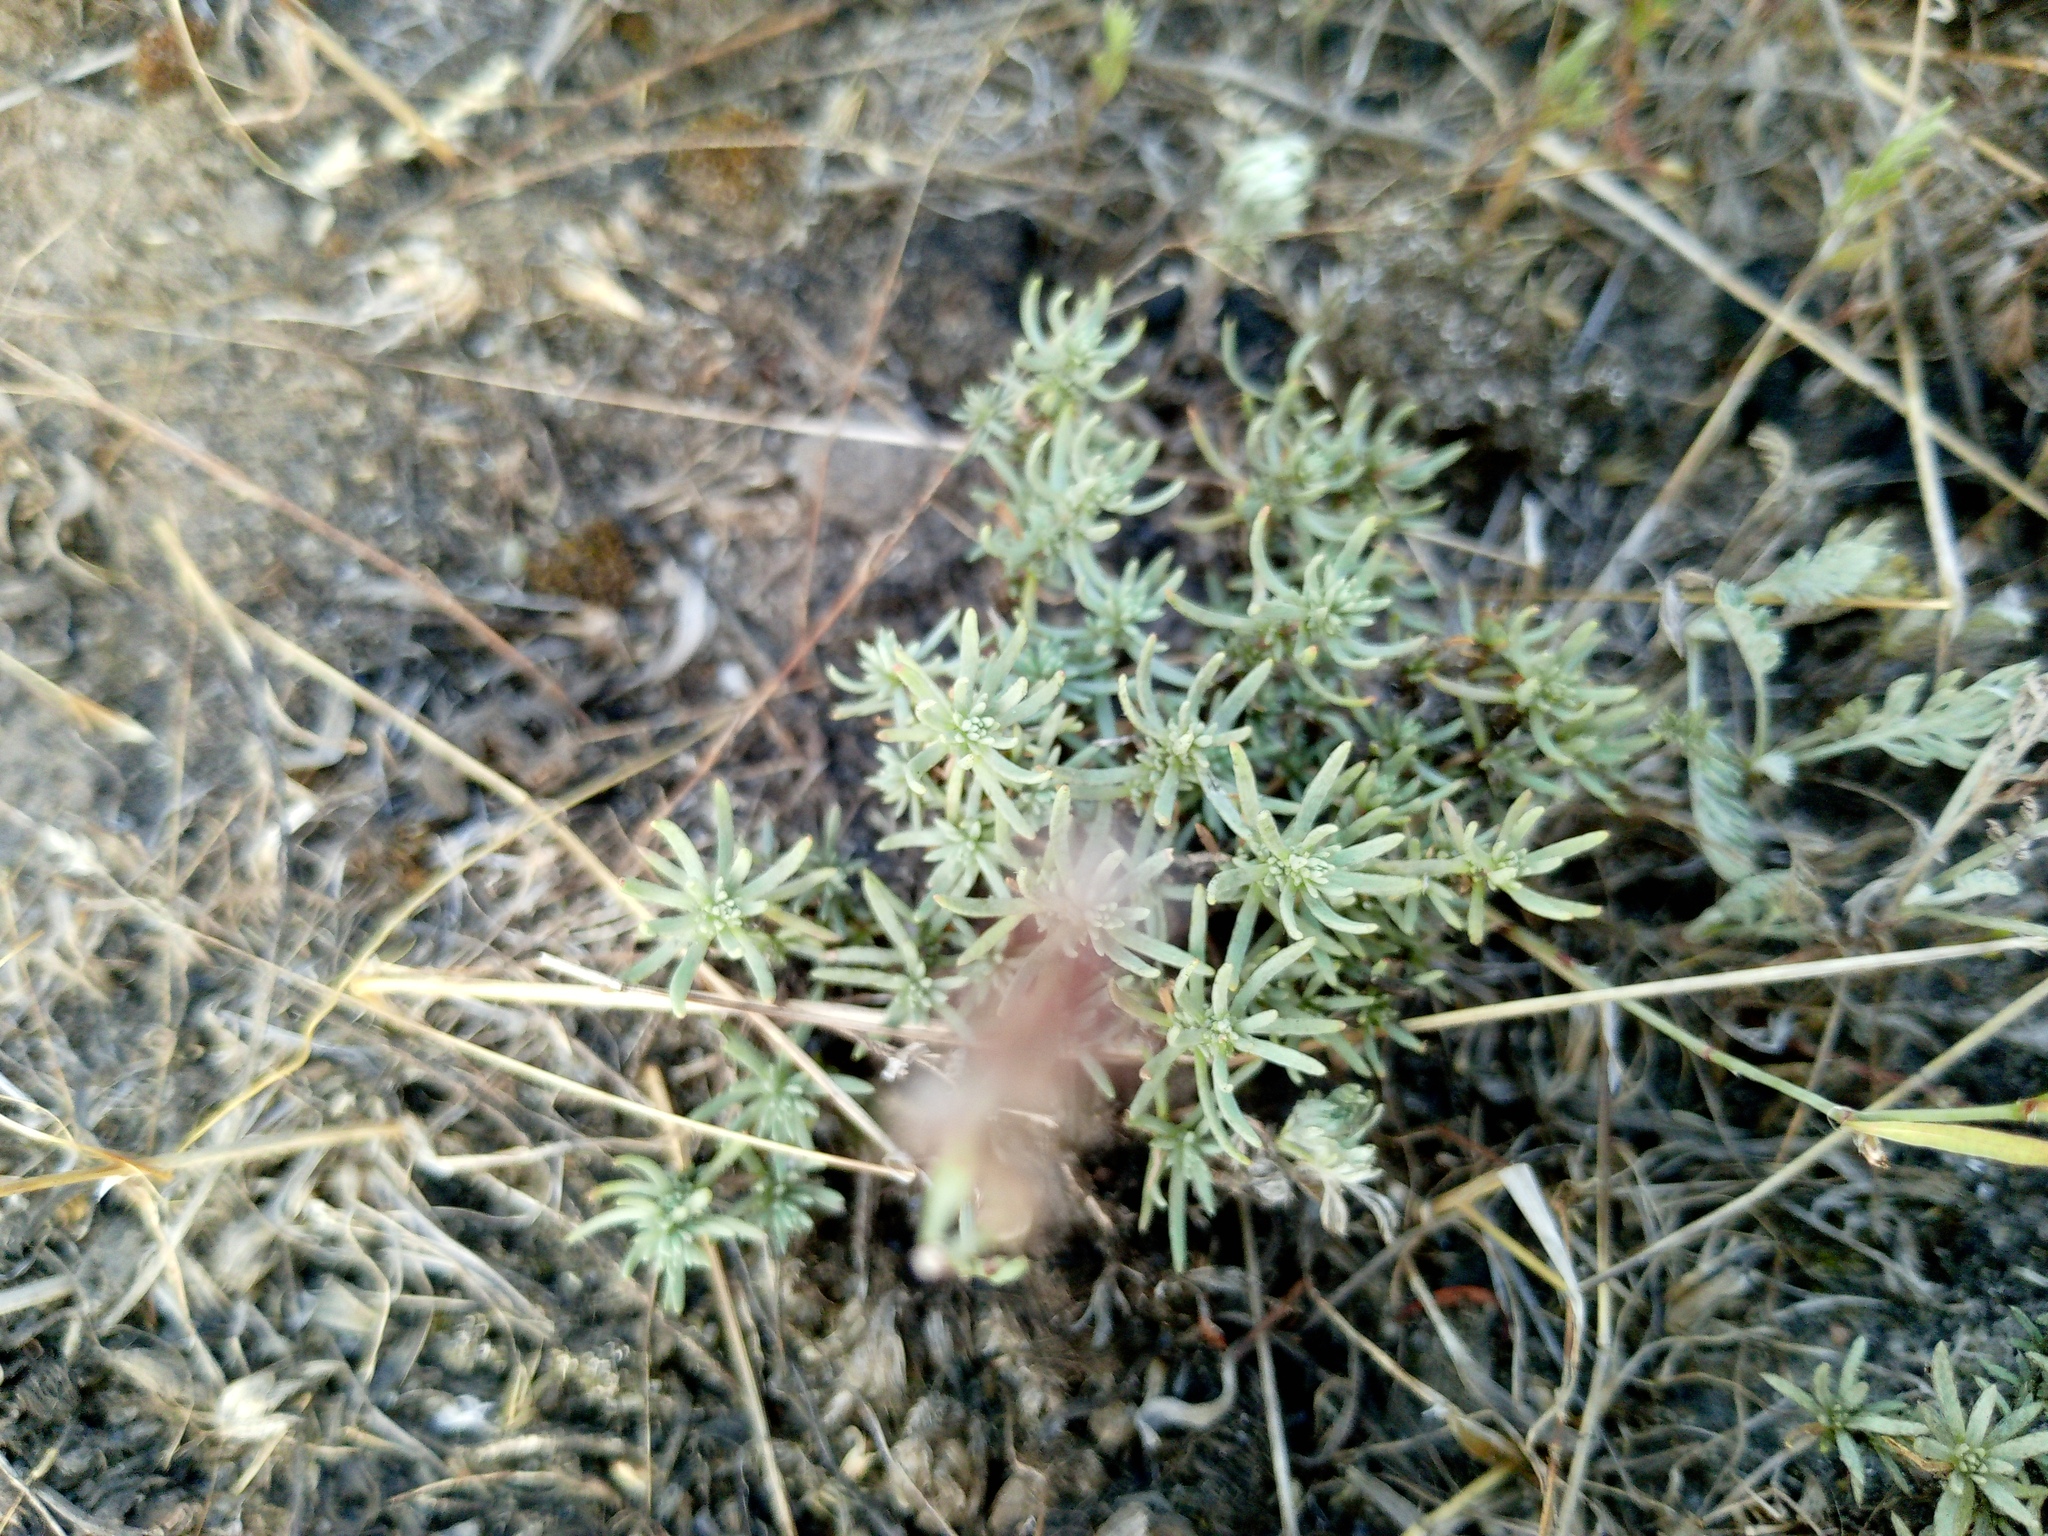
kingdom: Plantae
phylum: Tracheophyta
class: Magnoliopsida
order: Caryophyllales
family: Amaranthaceae
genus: Bassia
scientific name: Bassia prostrata
